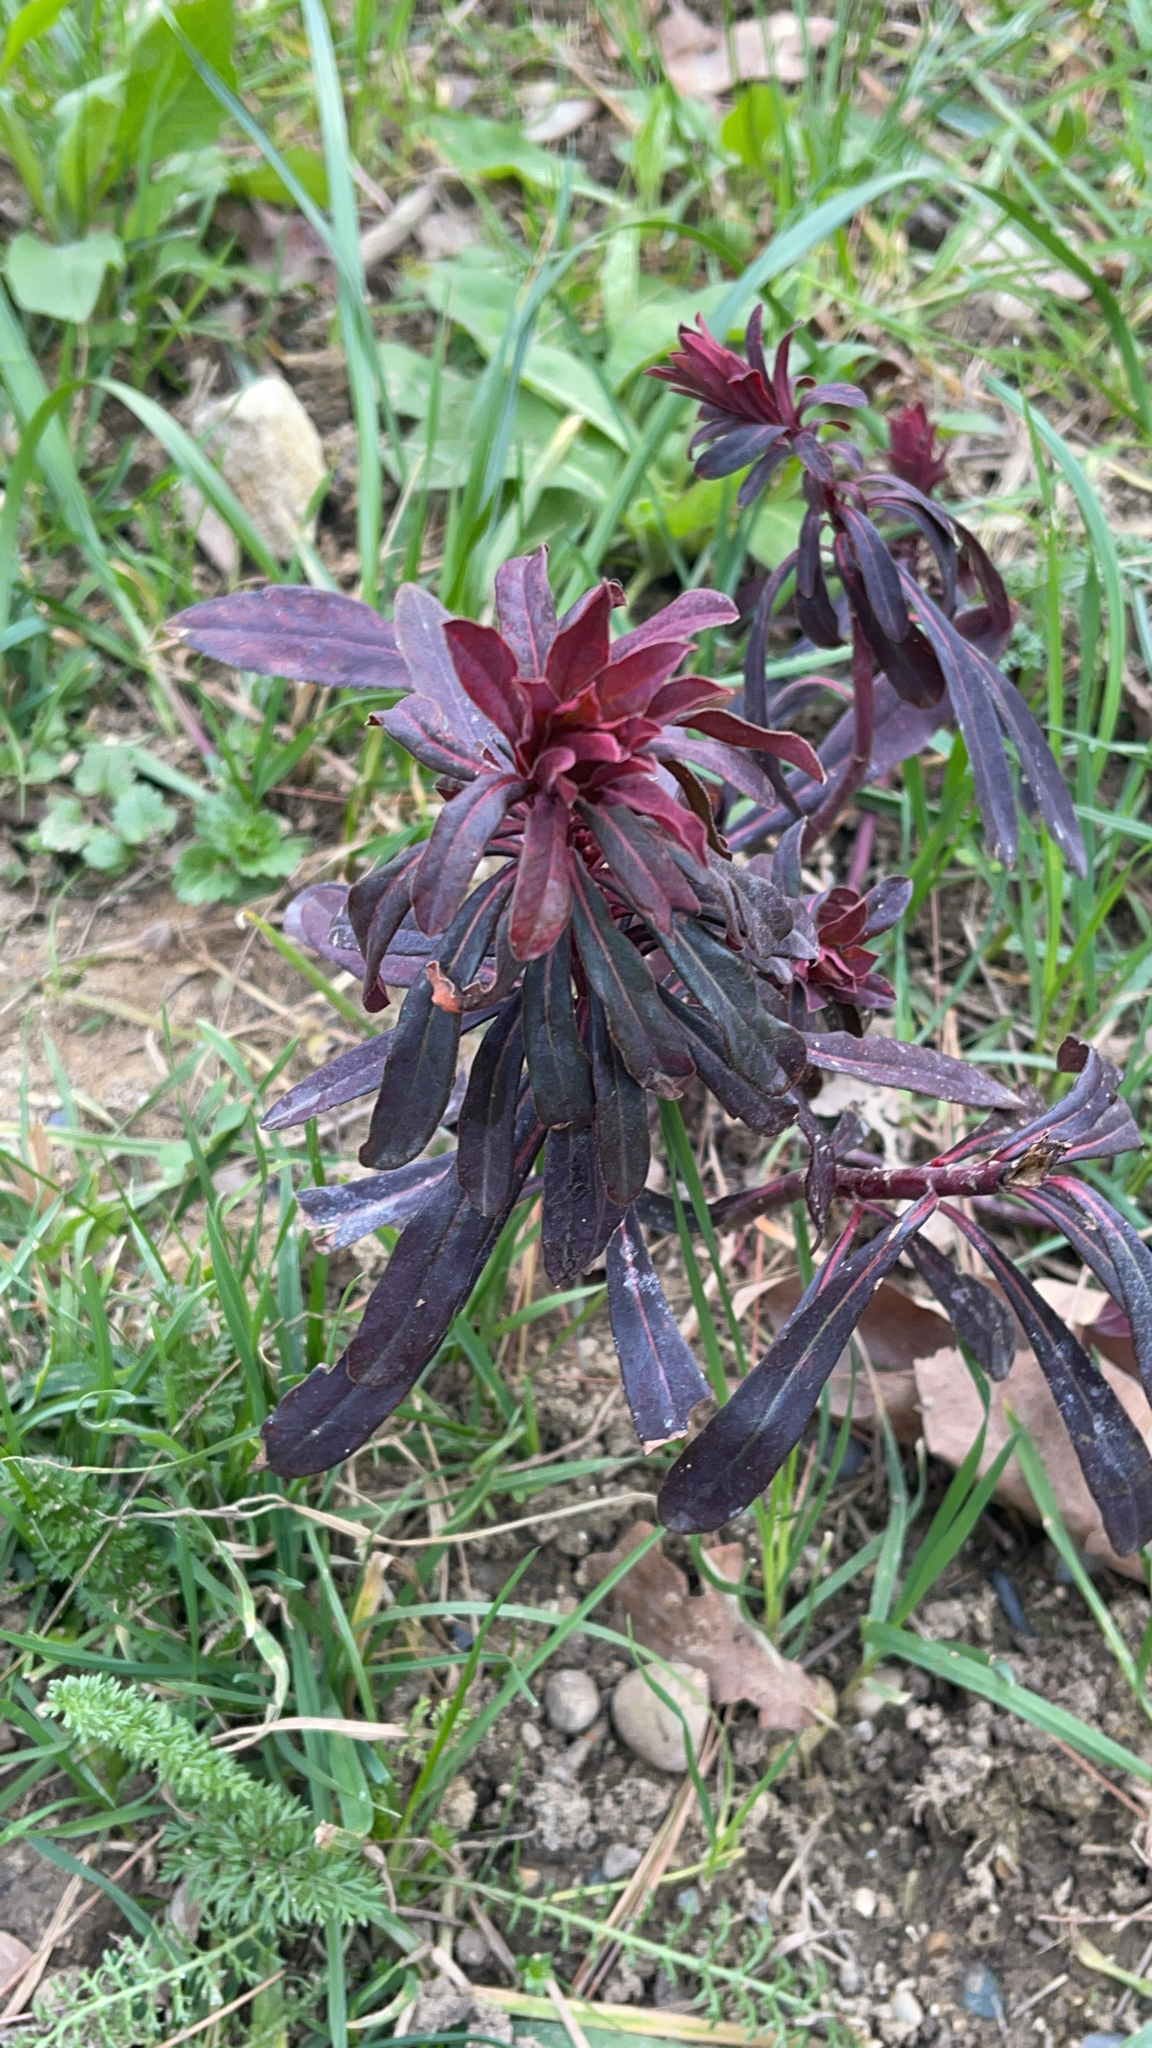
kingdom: Plantae
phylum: Tracheophyta
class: Magnoliopsida
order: Malpighiales
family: Euphorbiaceae
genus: Euphorbia
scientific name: Euphorbia amygdaloides
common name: Wood spurge
